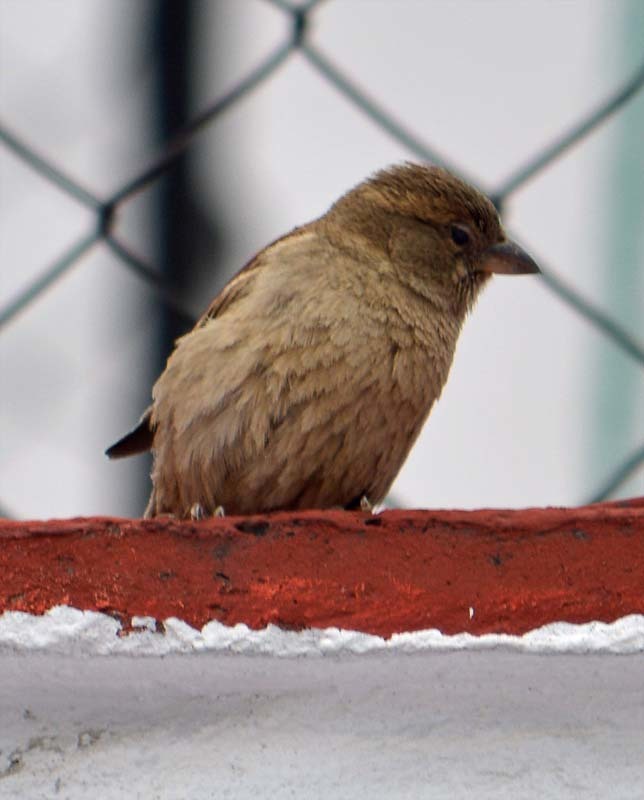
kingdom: Animalia
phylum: Chordata
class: Aves
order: Passeriformes
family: Passeridae
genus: Passer
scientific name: Passer domesticus
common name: House sparrow
